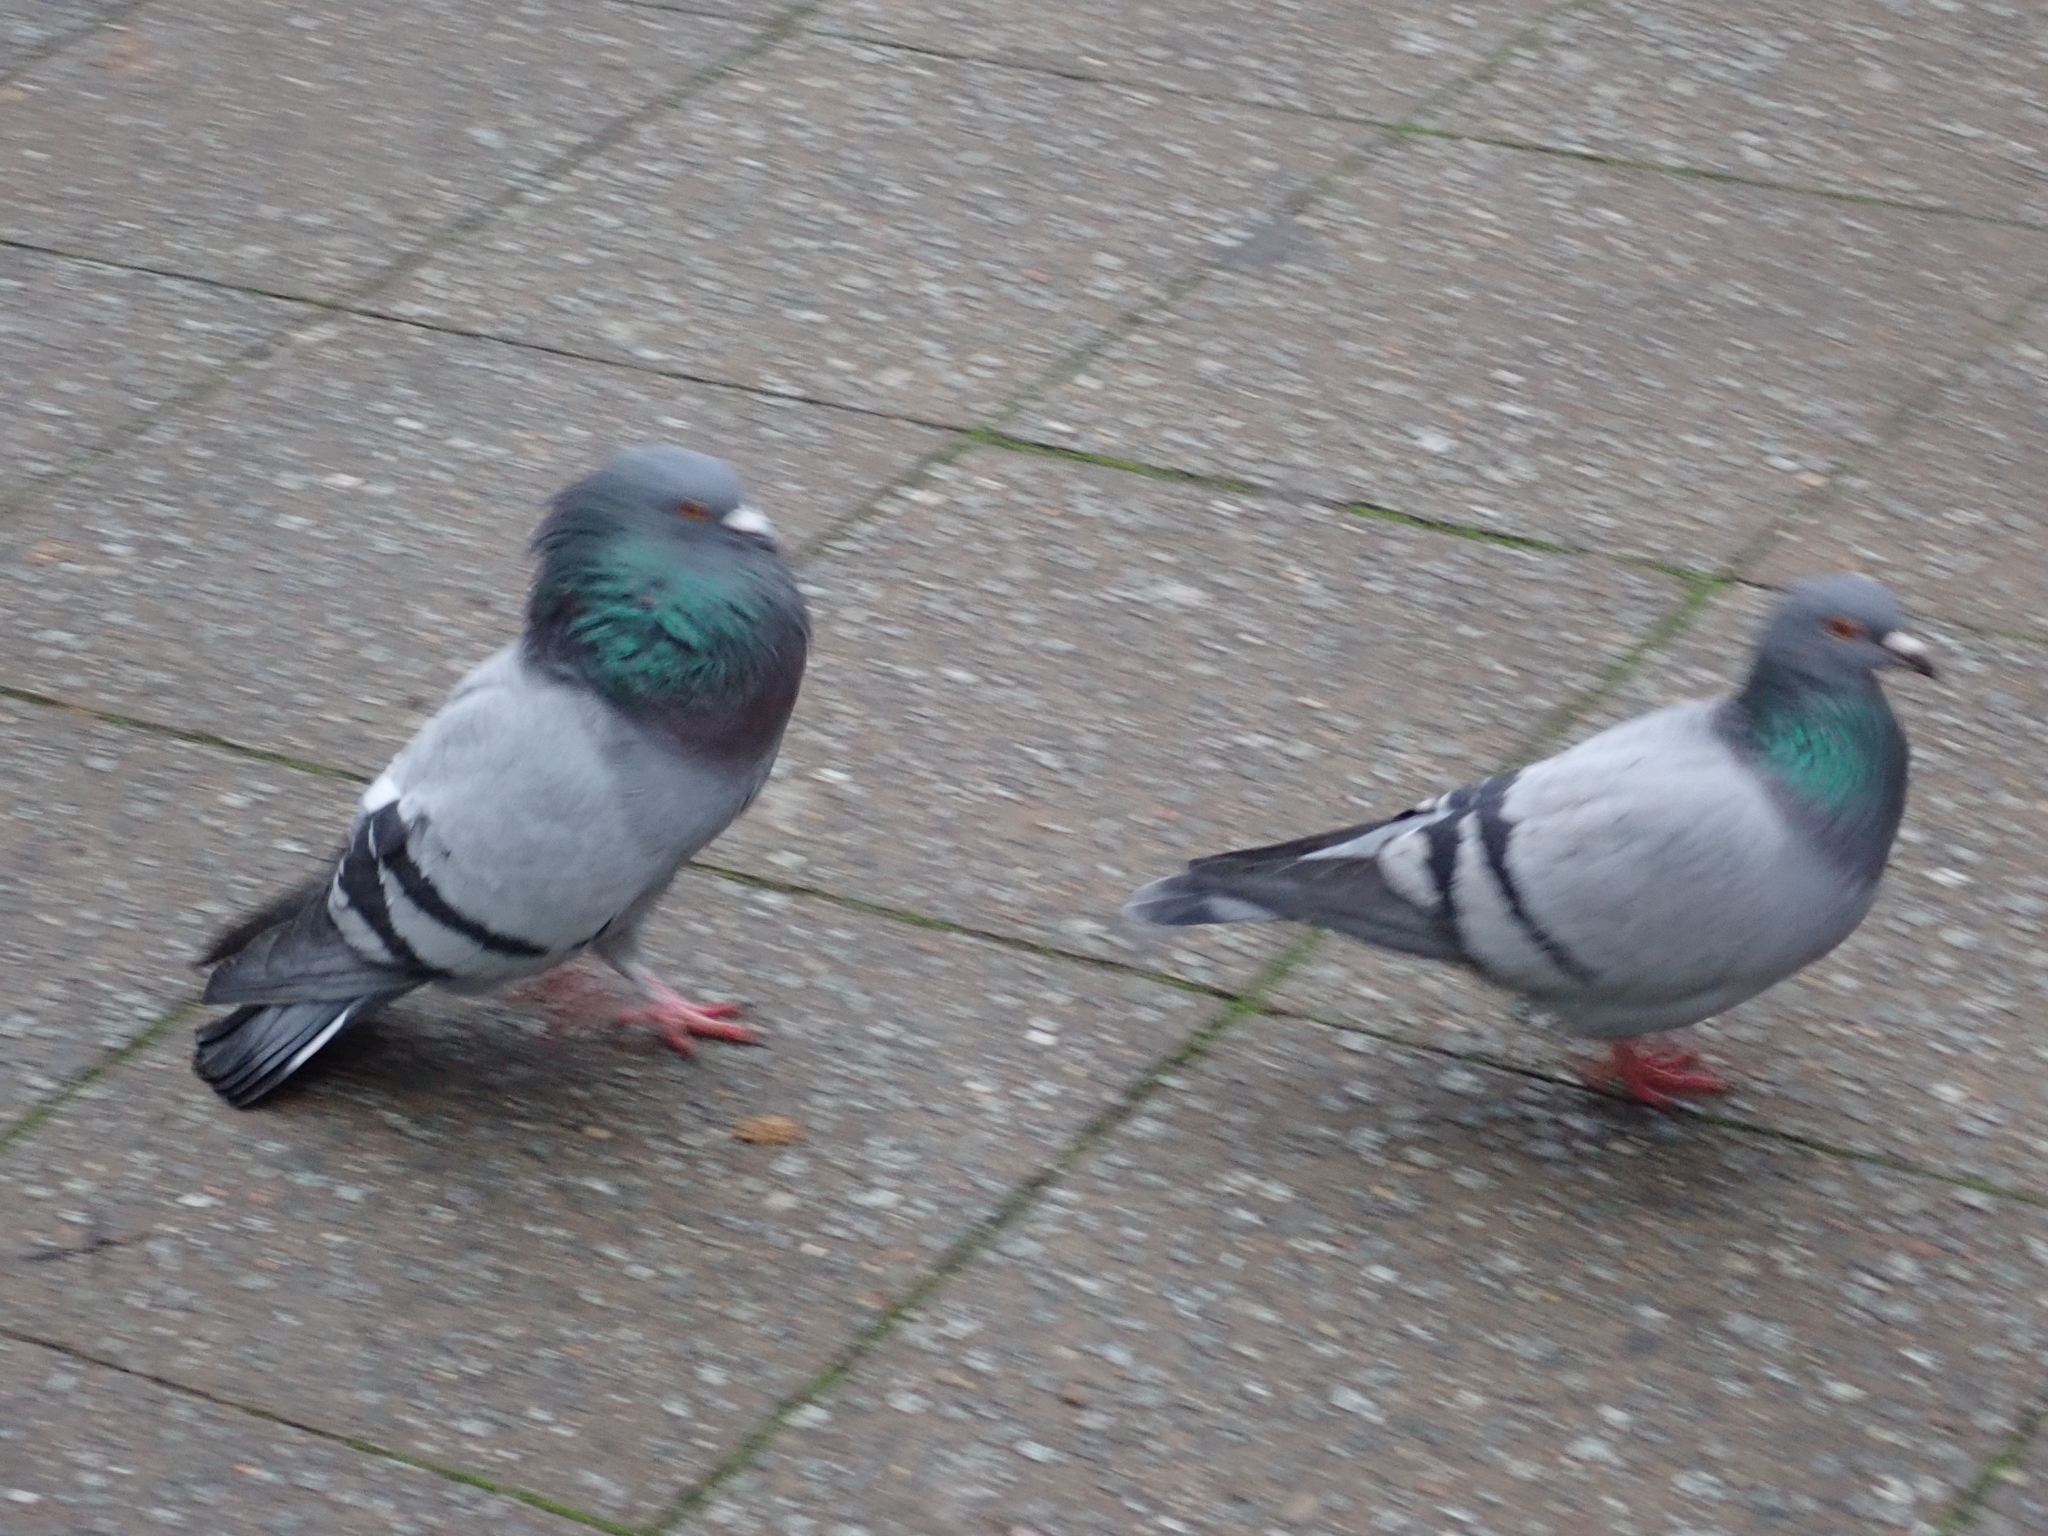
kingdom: Animalia
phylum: Chordata
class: Aves
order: Columbiformes
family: Columbidae
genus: Columba
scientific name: Columba livia
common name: Rock pigeon
